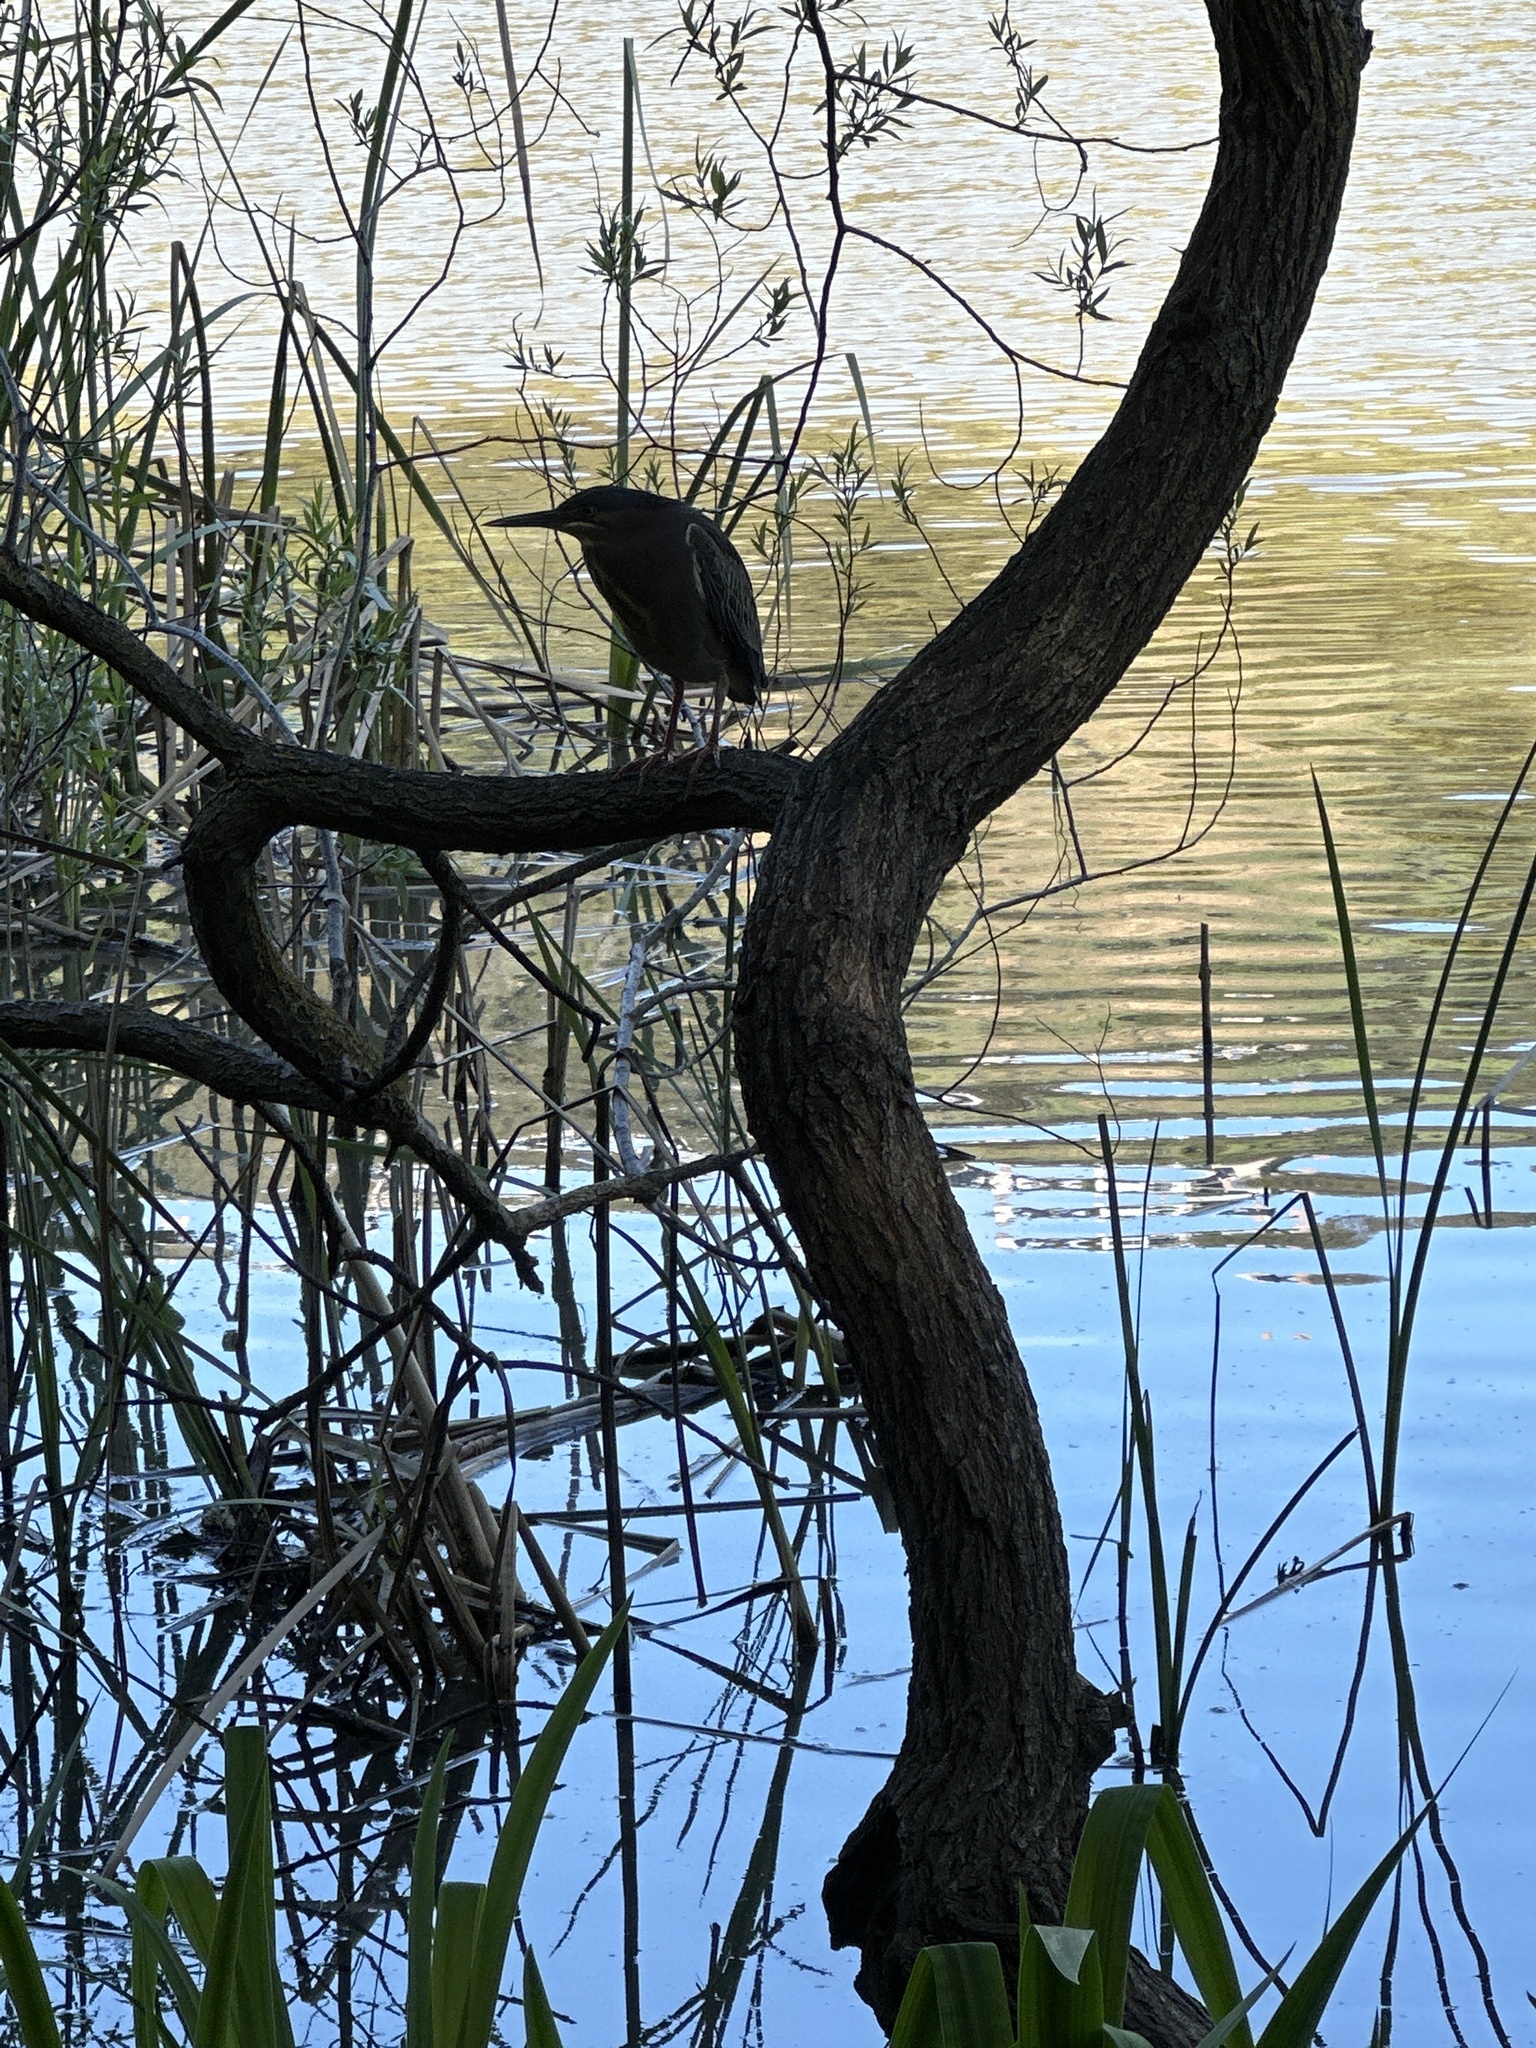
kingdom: Animalia
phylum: Chordata
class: Aves
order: Pelecaniformes
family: Ardeidae
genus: Butorides
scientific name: Butorides virescens
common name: Green heron
